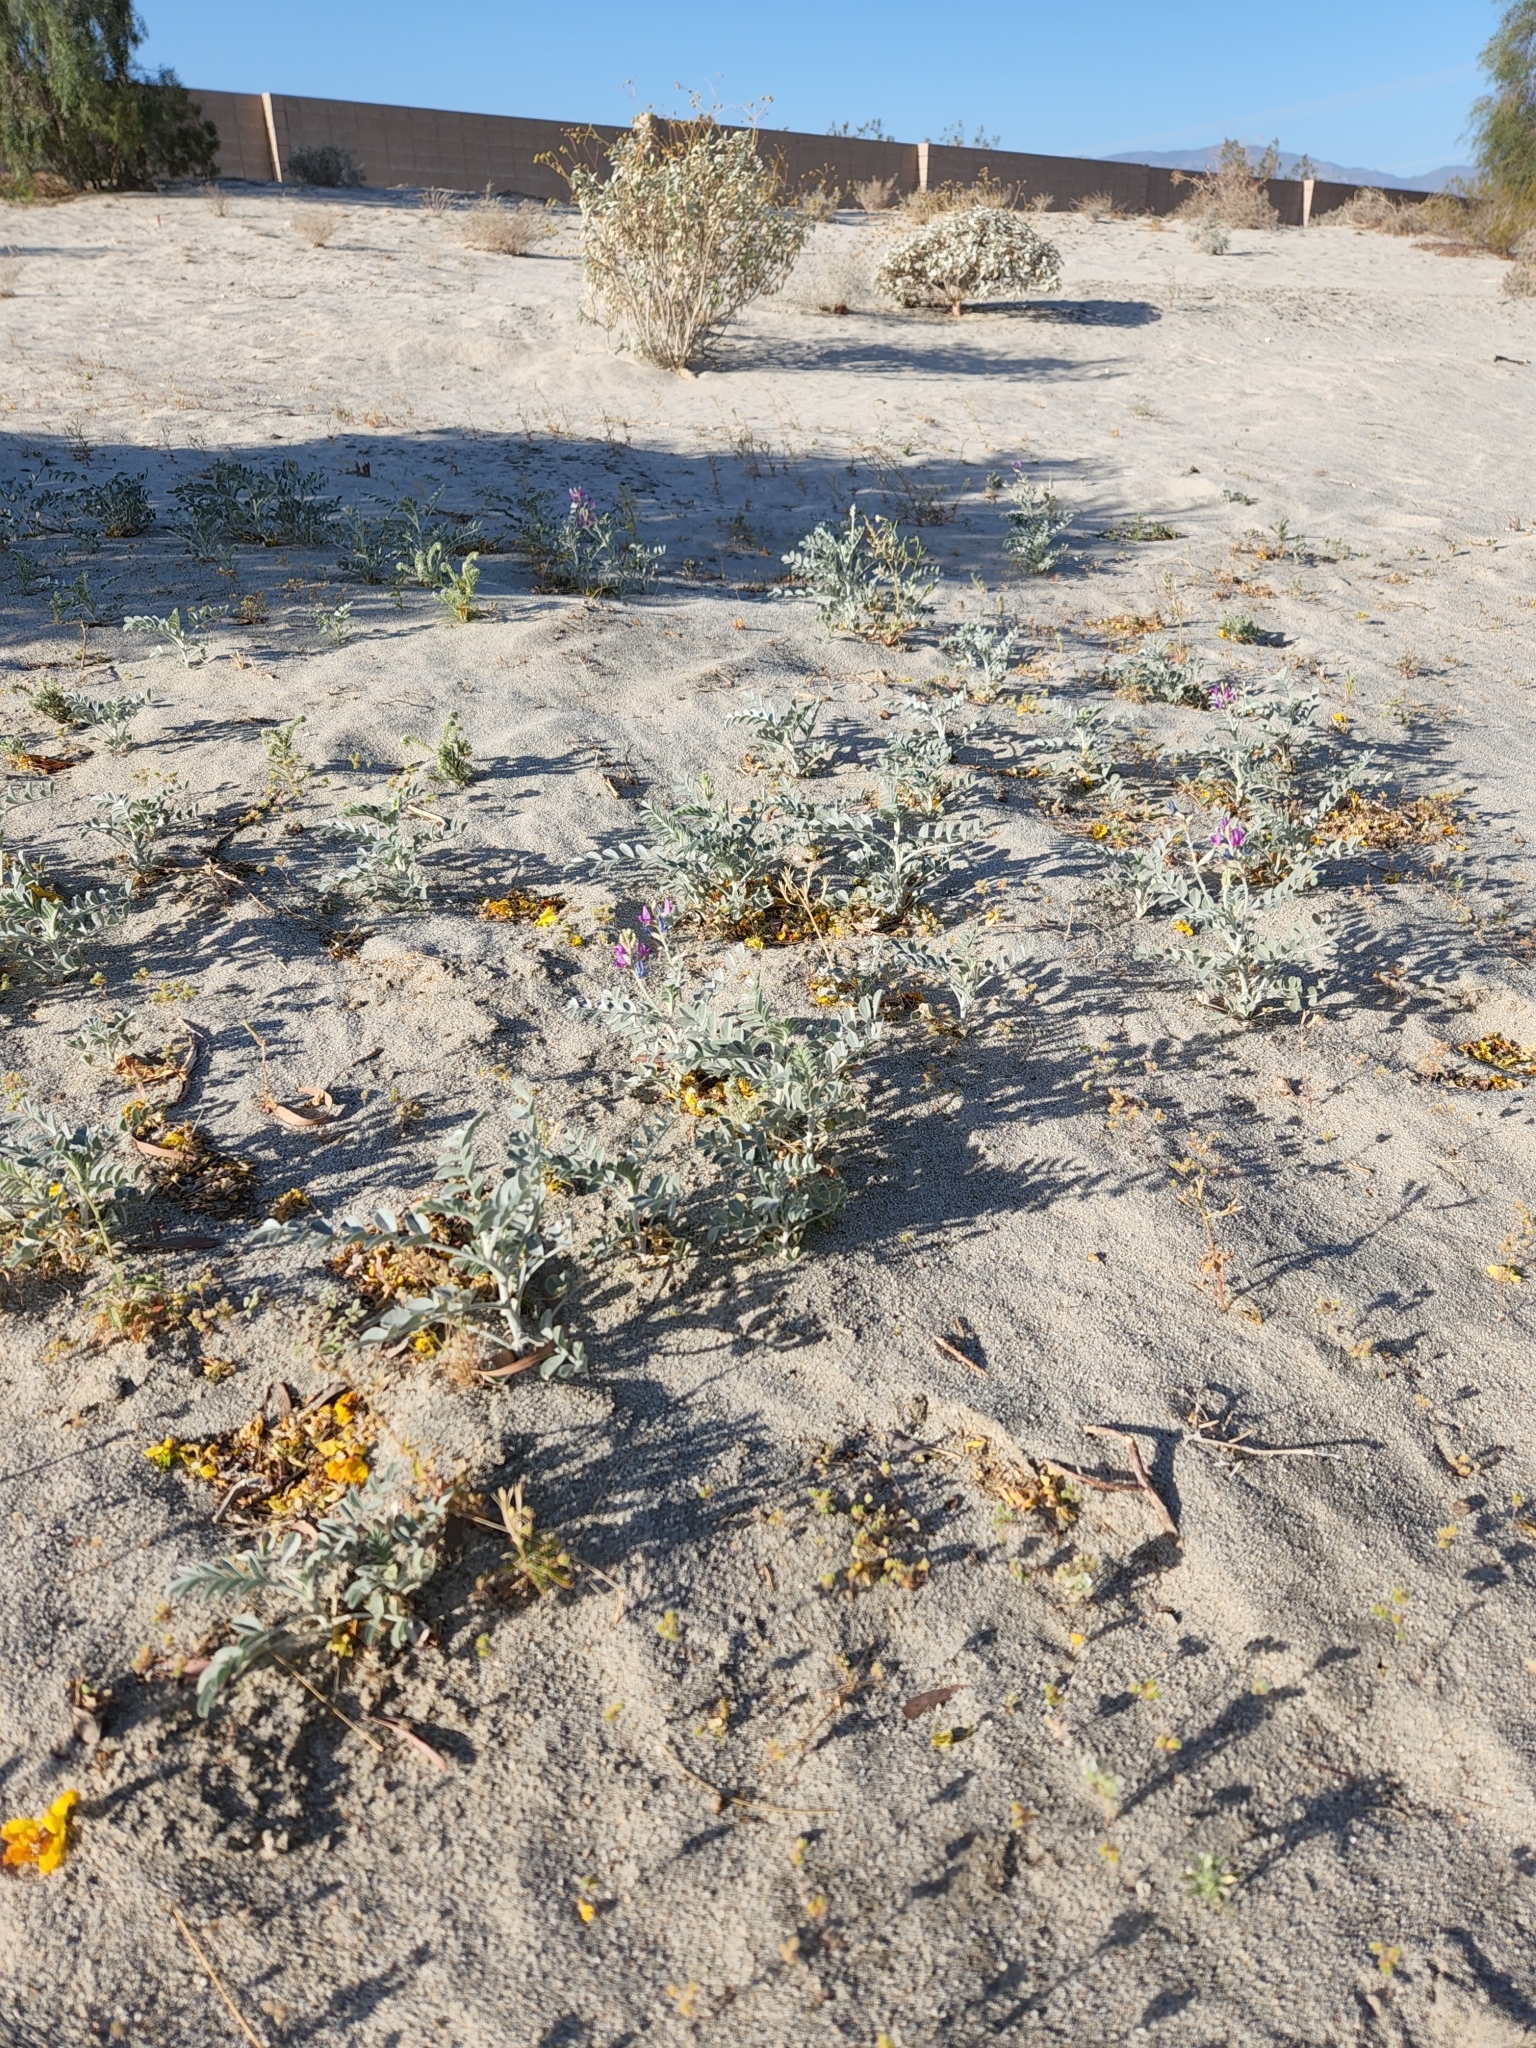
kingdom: Plantae
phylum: Tracheophyta
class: Magnoliopsida
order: Fabales
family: Fabaceae
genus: Astragalus
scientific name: Astragalus lentiginosus
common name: Freckled milkvetch
